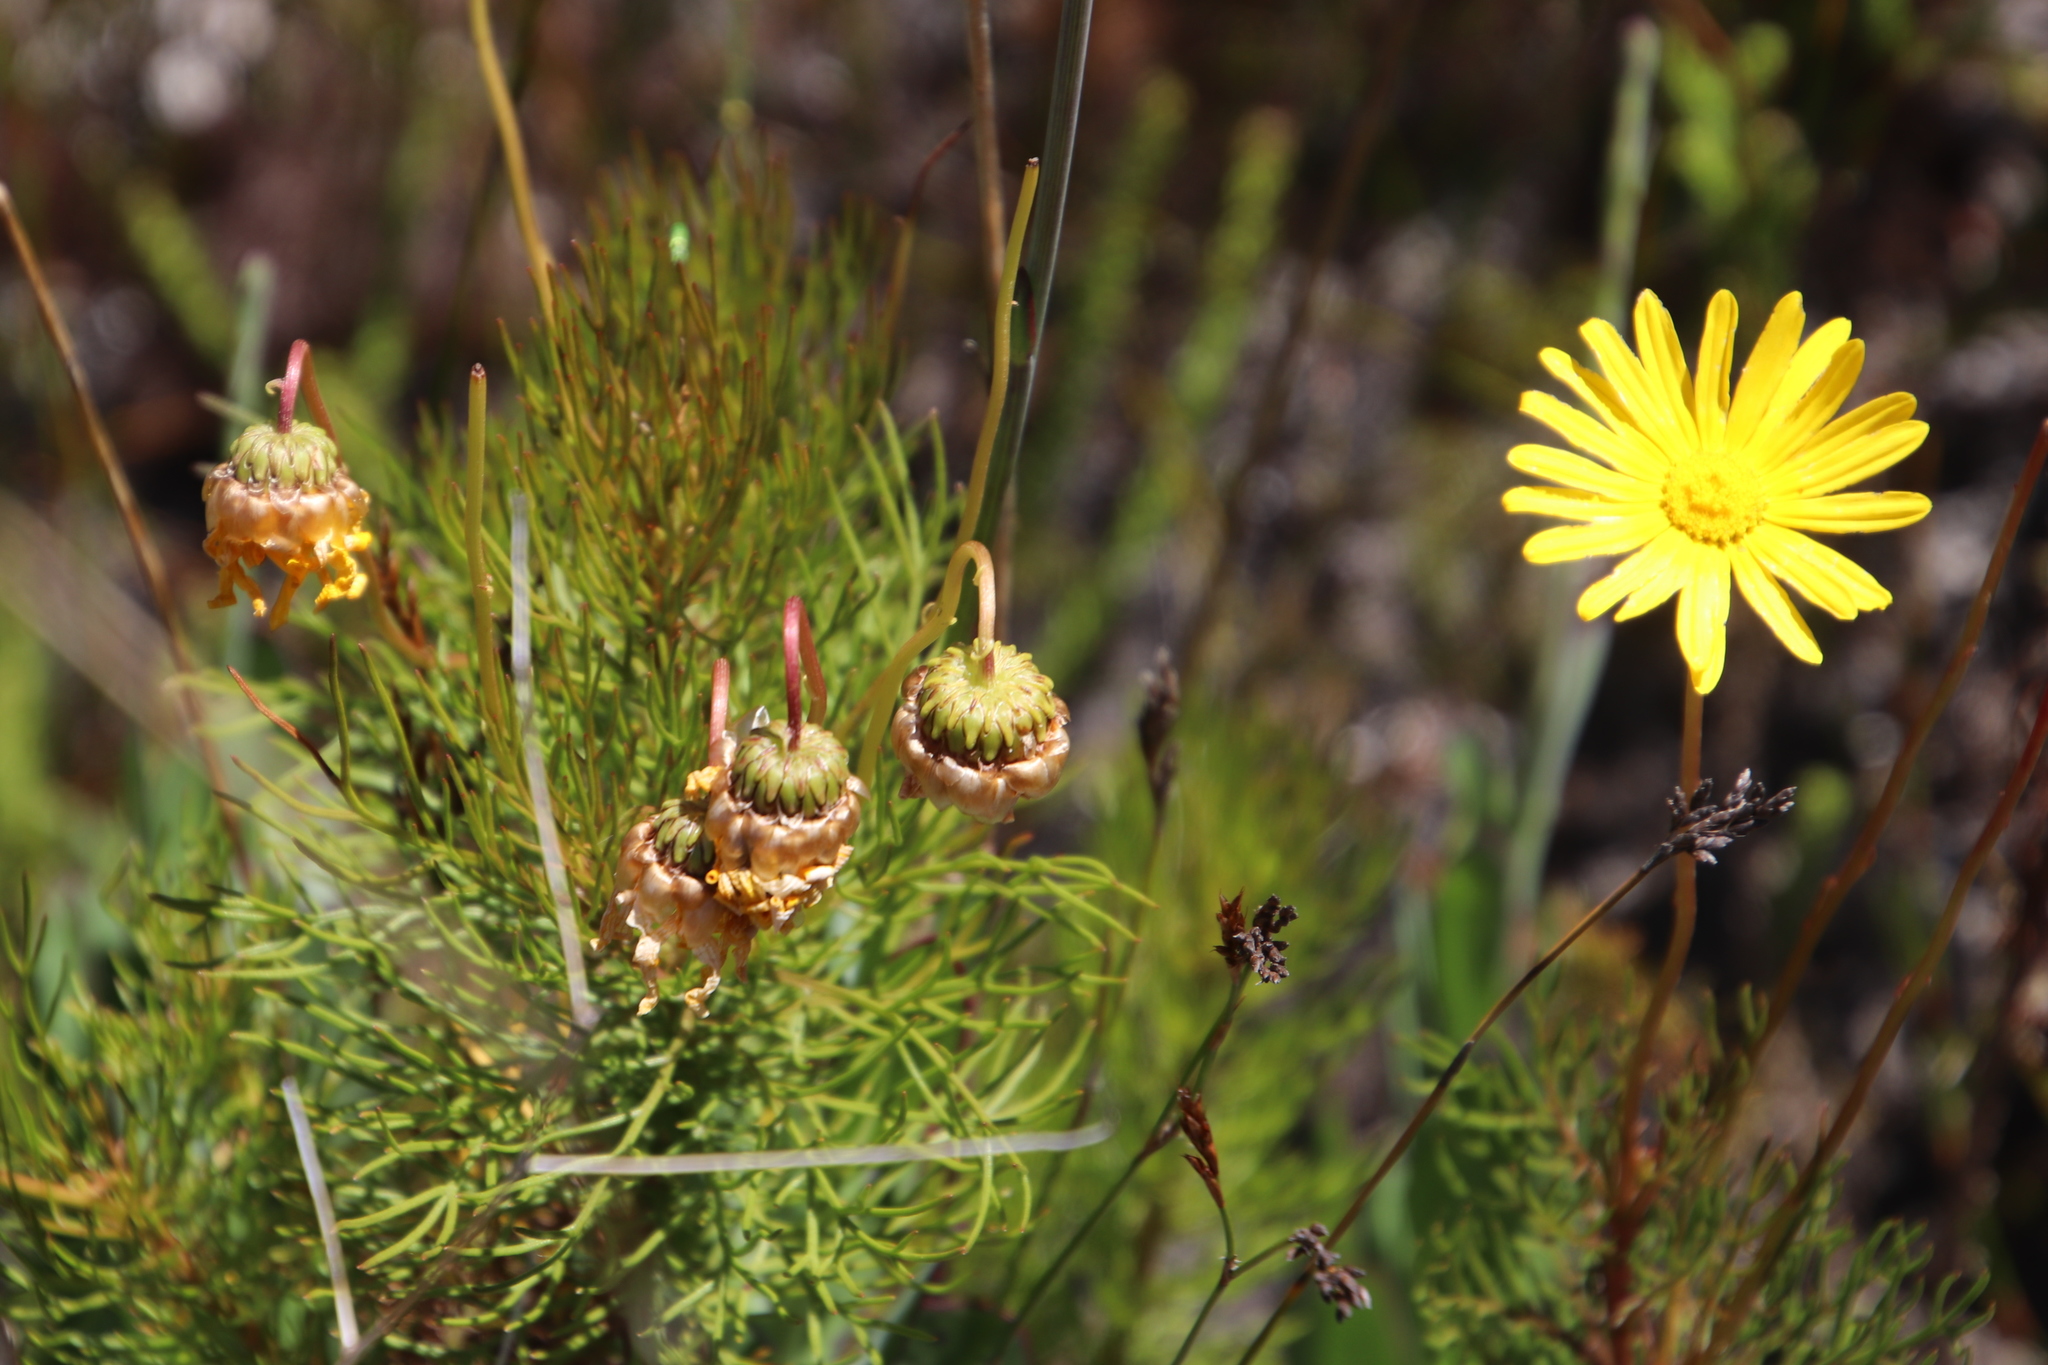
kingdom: Plantae
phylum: Tracheophyta
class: Magnoliopsida
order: Asterales
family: Asteraceae
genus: Euryops
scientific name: Euryops abrotanifolius
